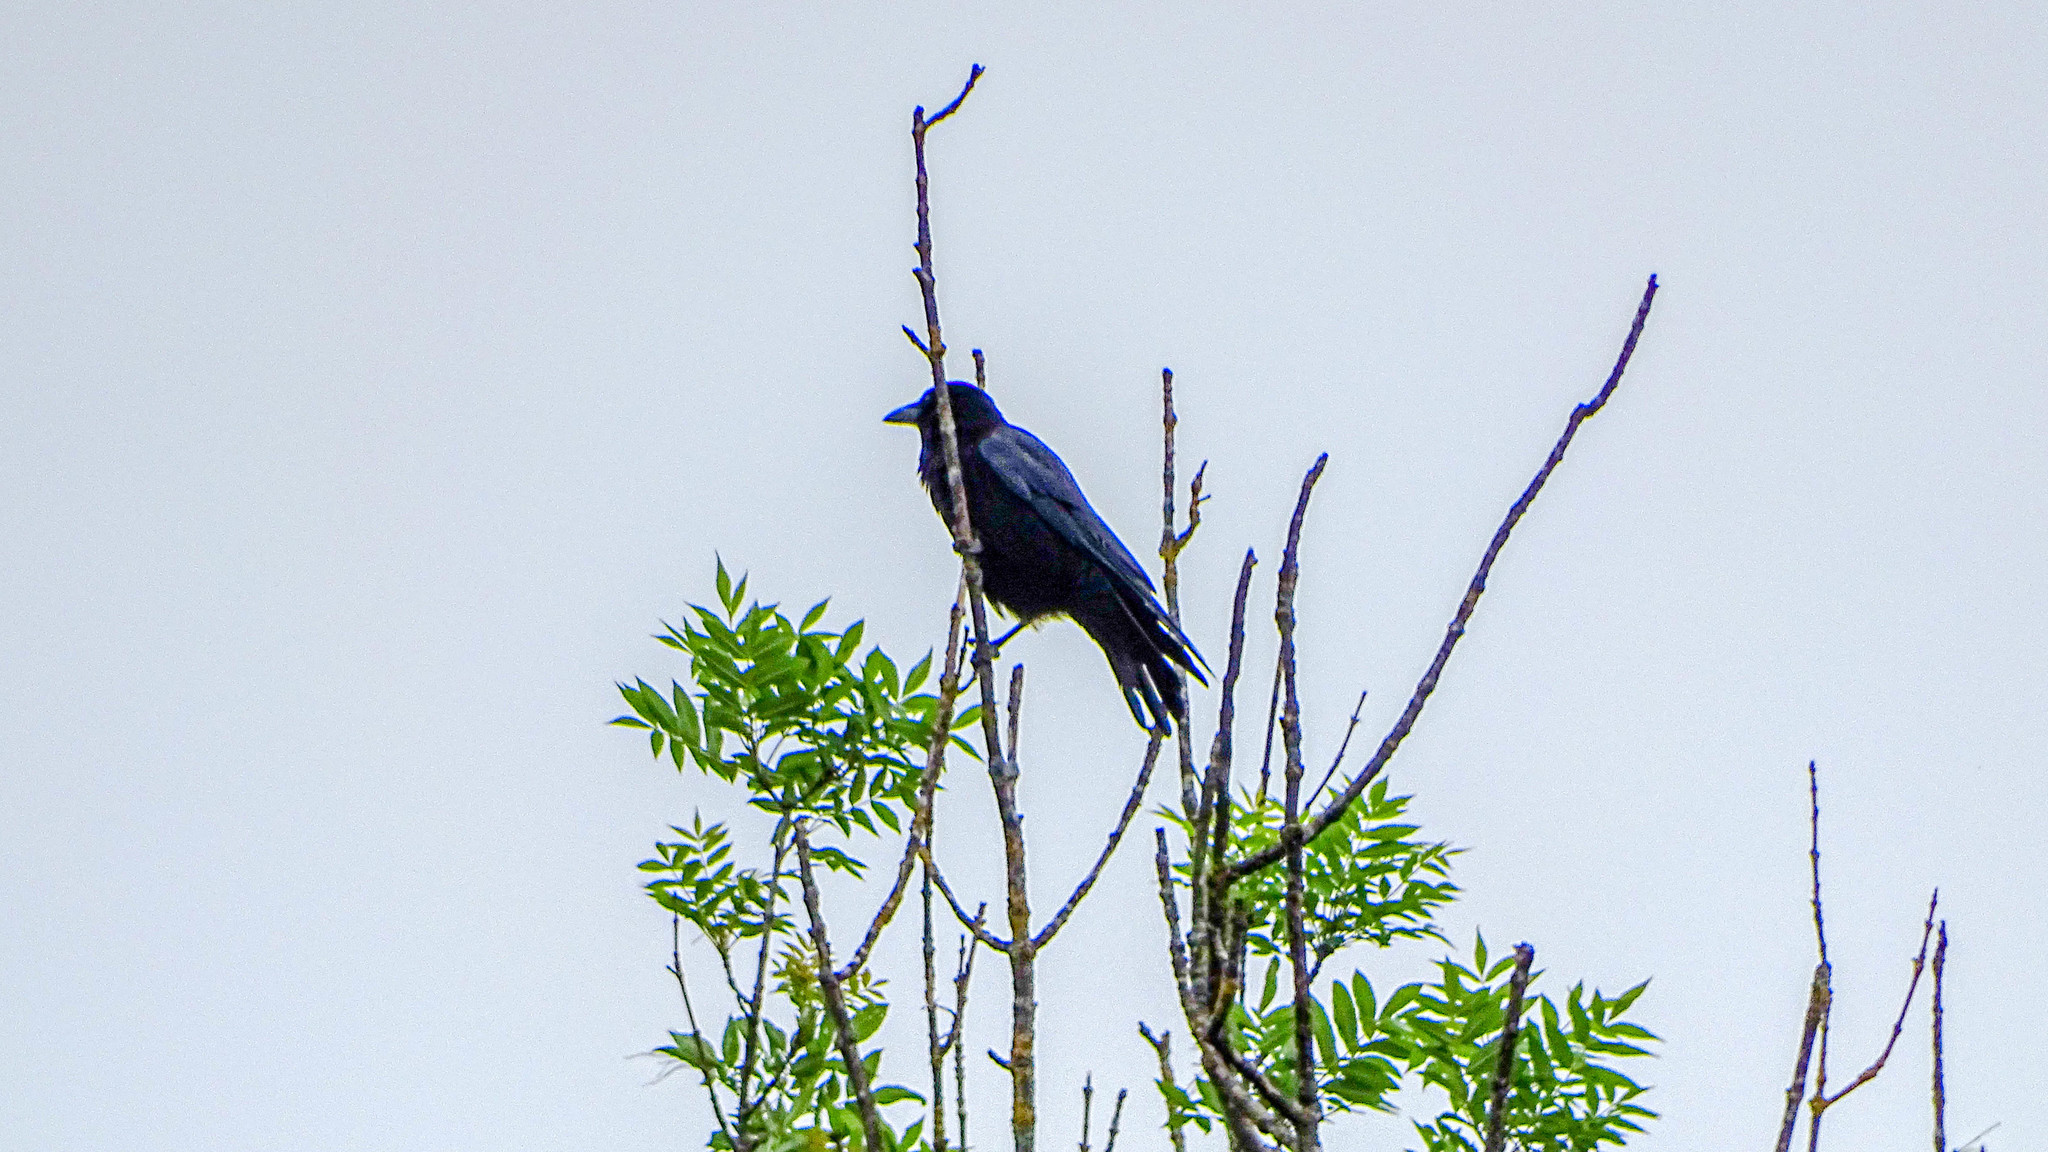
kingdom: Animalia
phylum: Chordata
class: Aves
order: Passeriformes
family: Corvidae
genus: Corvus
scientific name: Corvus corone
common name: Carrion crow
